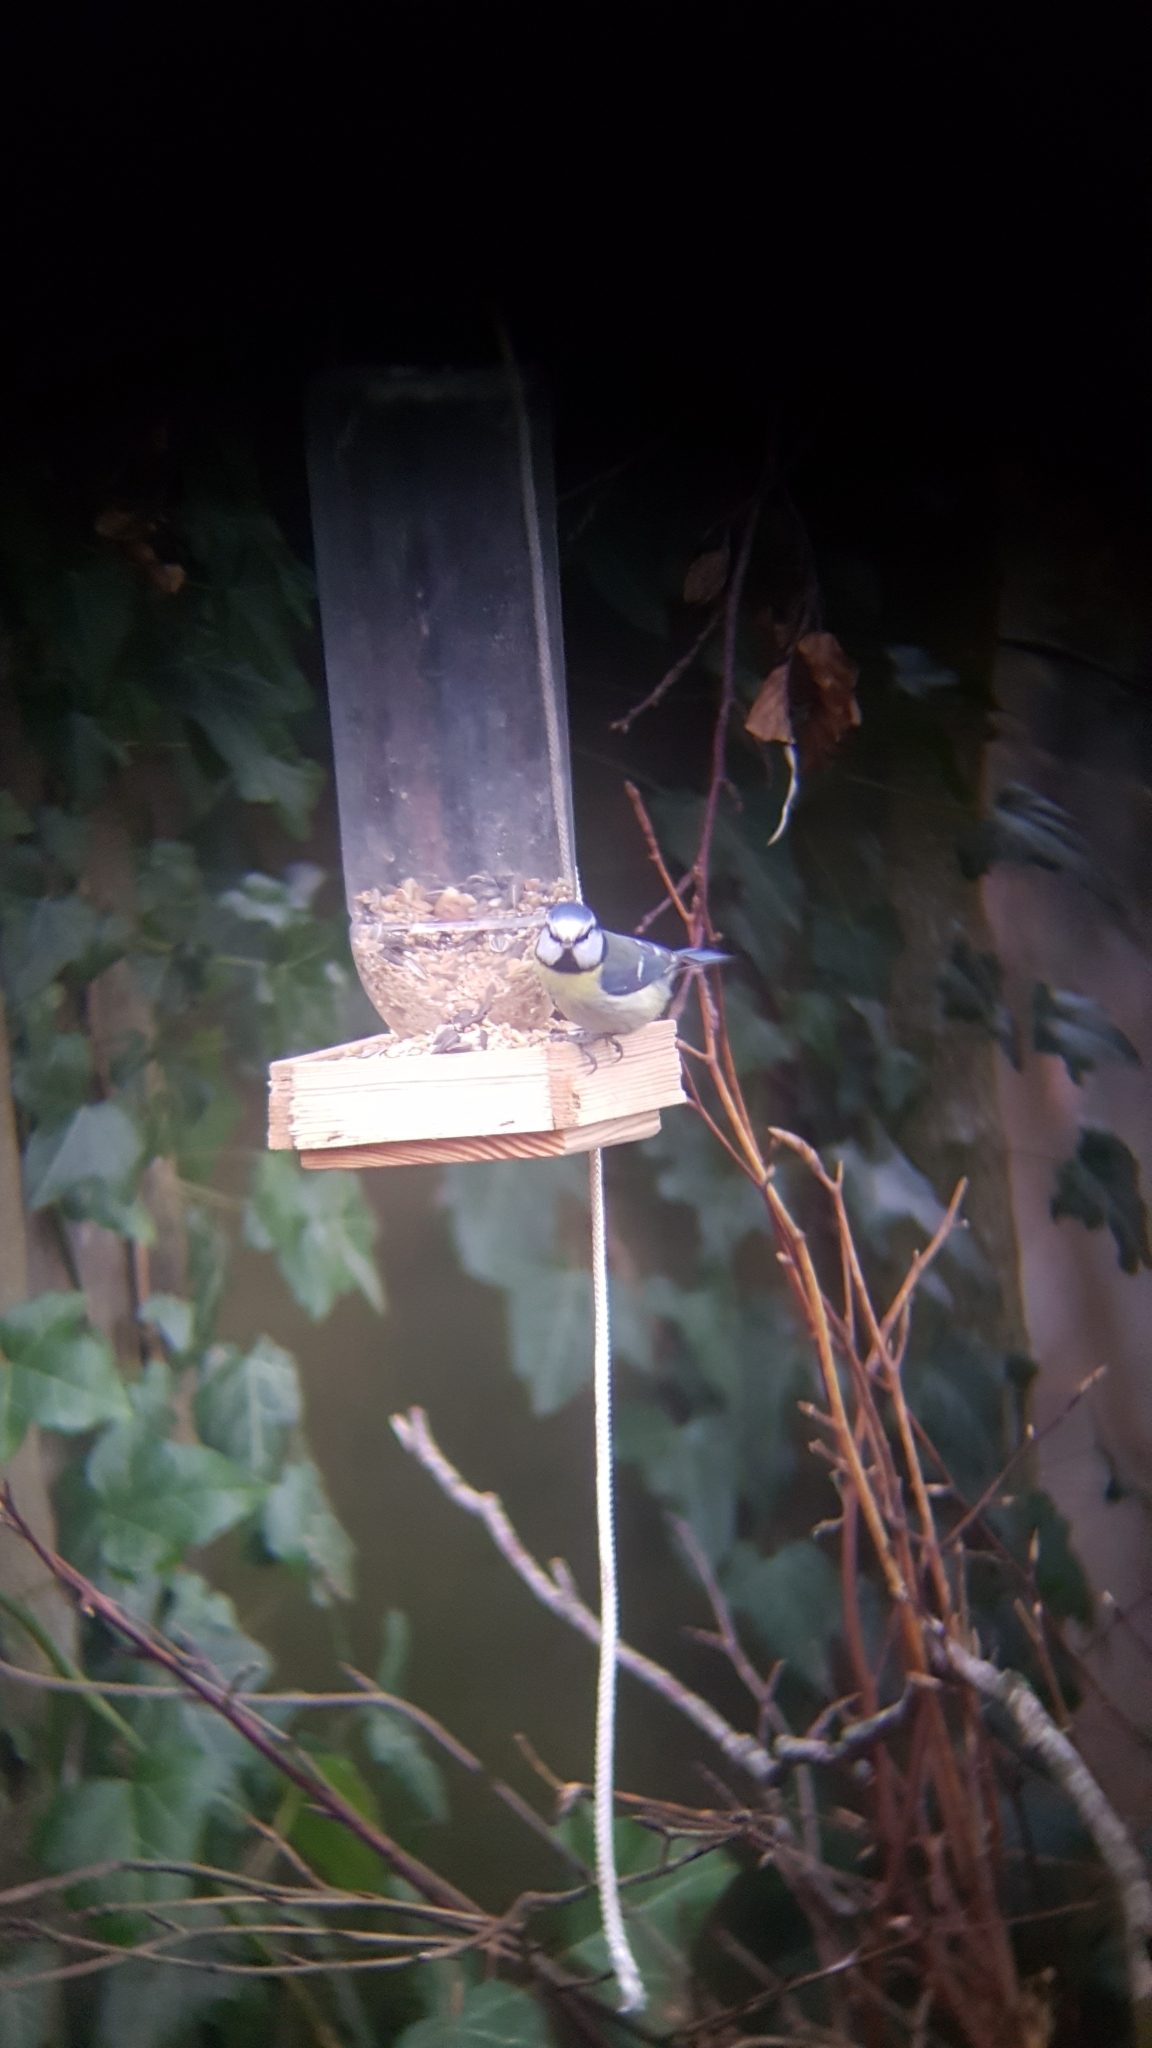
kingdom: Animalia
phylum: Chordata
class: Aves
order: Passeriformes
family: Paridae
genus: Cyanistes
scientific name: Cyanistes caeruleus
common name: Eurasian blue tit
